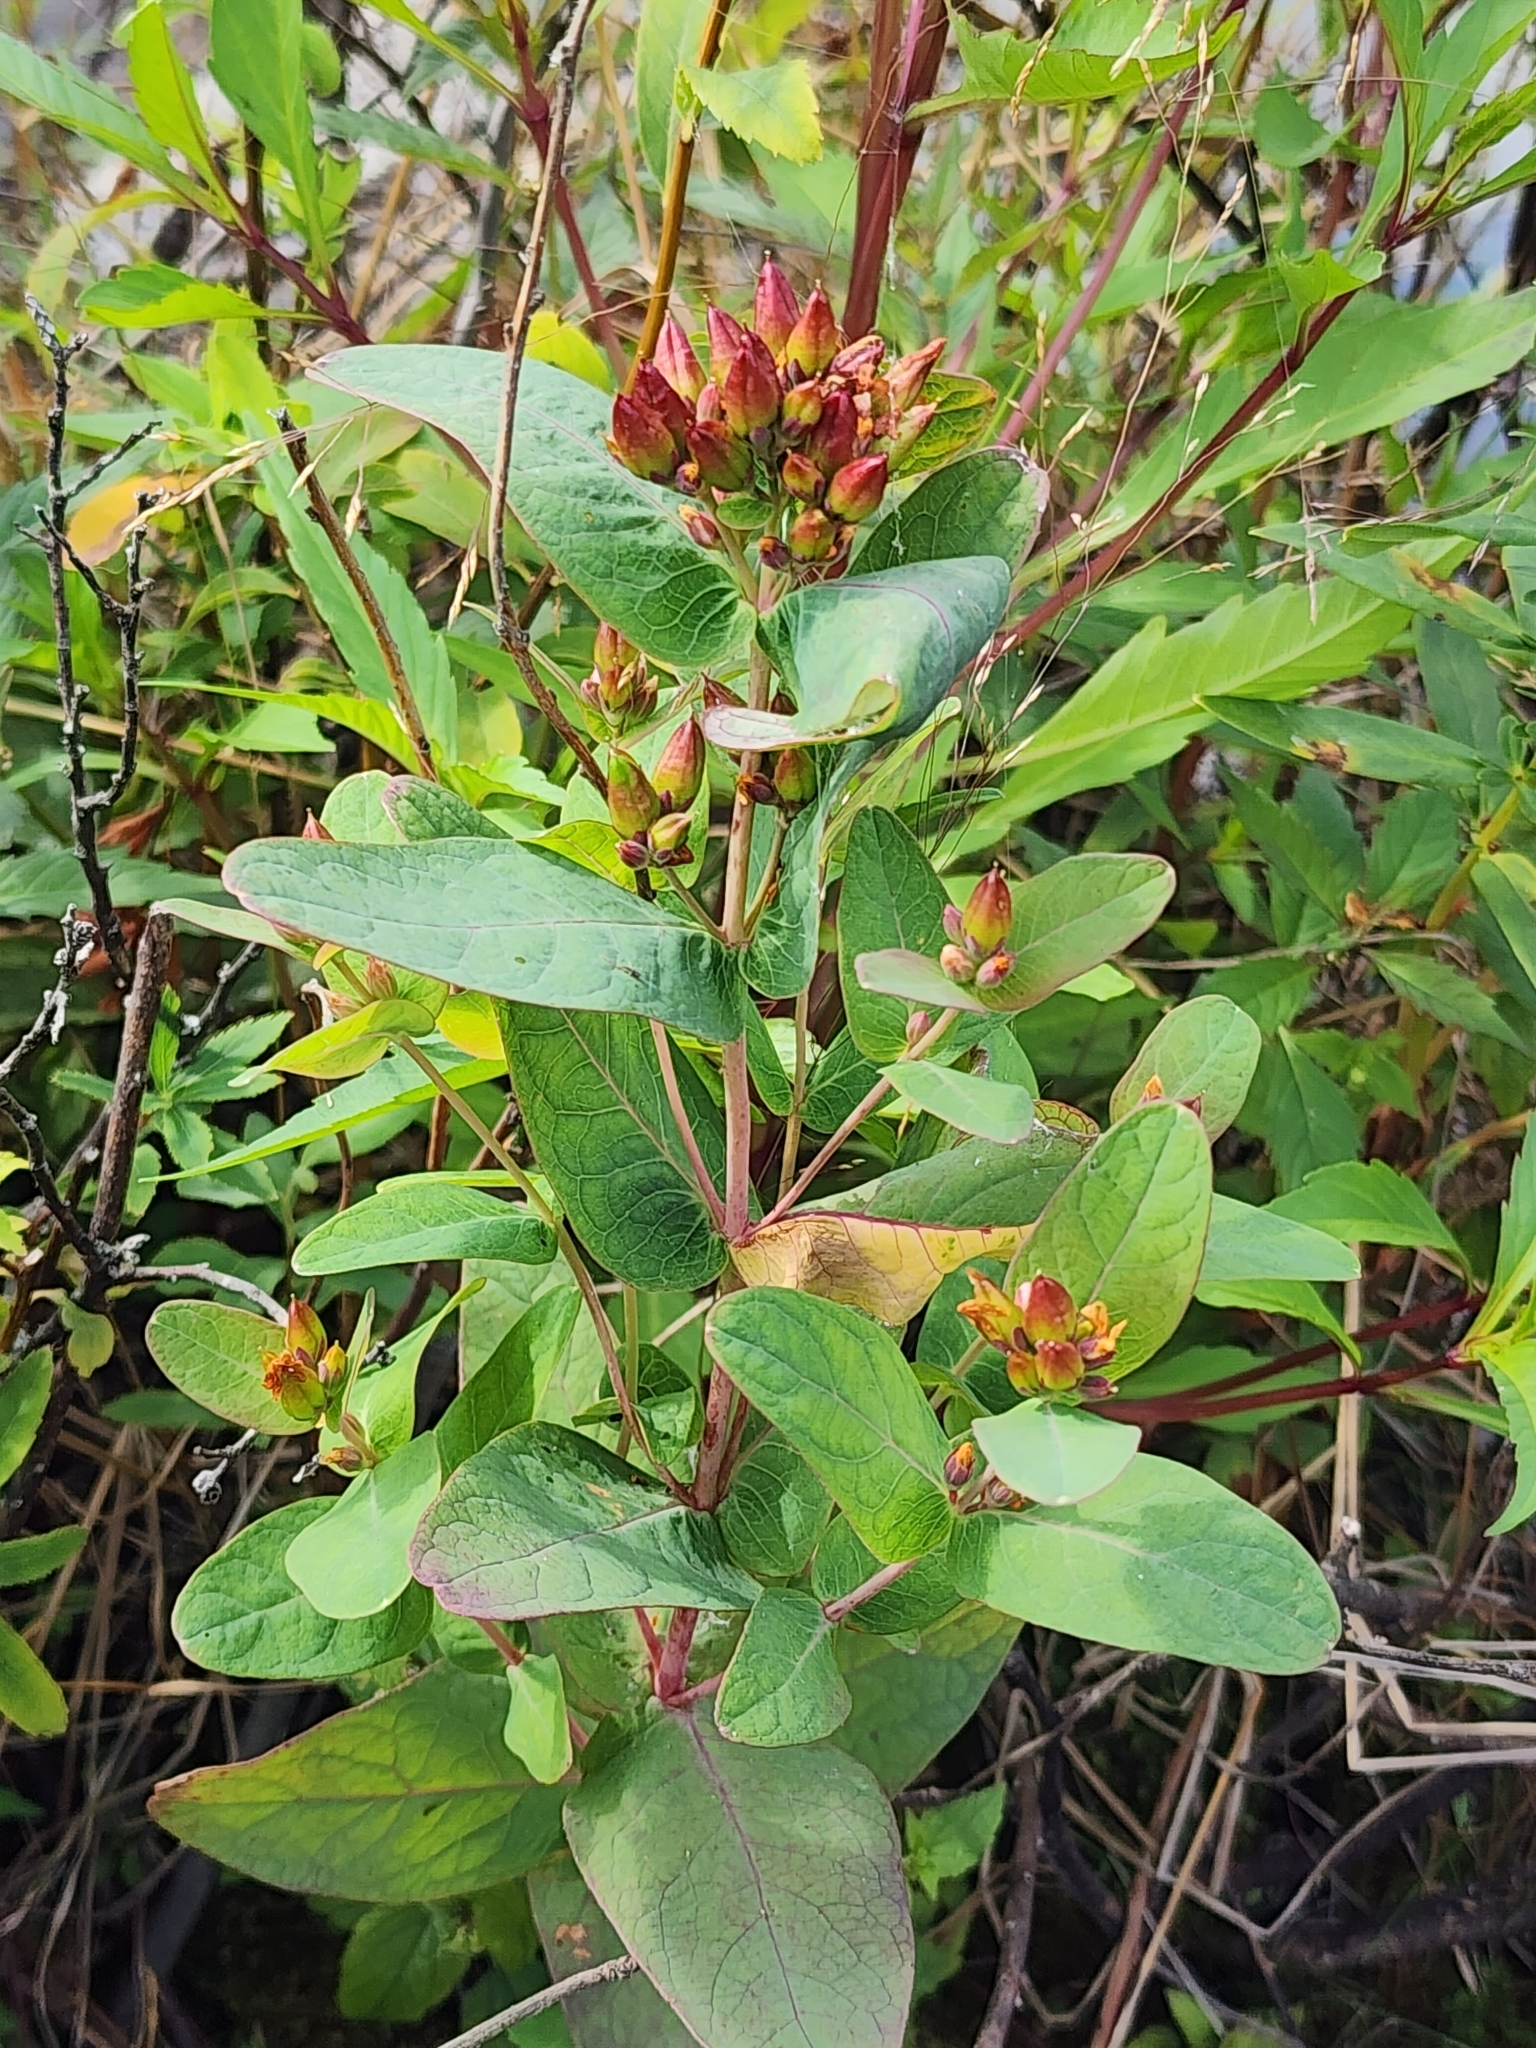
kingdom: Plantae
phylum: Tracheophyta
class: Magnoliopsida
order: Malpighiales
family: Hypericaceae
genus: Triadenum
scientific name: Triadenum fraseri
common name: Fraser's marsh st. johnswort
